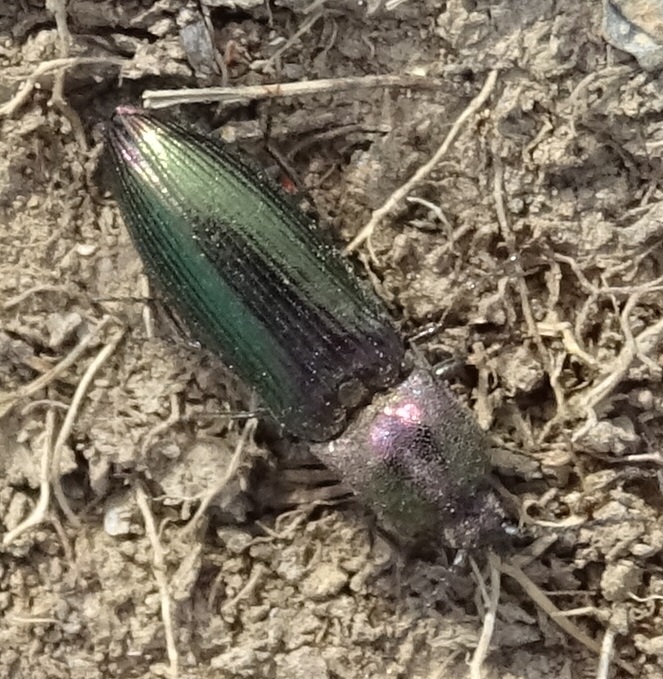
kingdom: Animalia
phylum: Arthropoda
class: Insecta
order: Coleoptera
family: Elateridae
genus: Ctenicera
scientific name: Ctenicera cuprea
